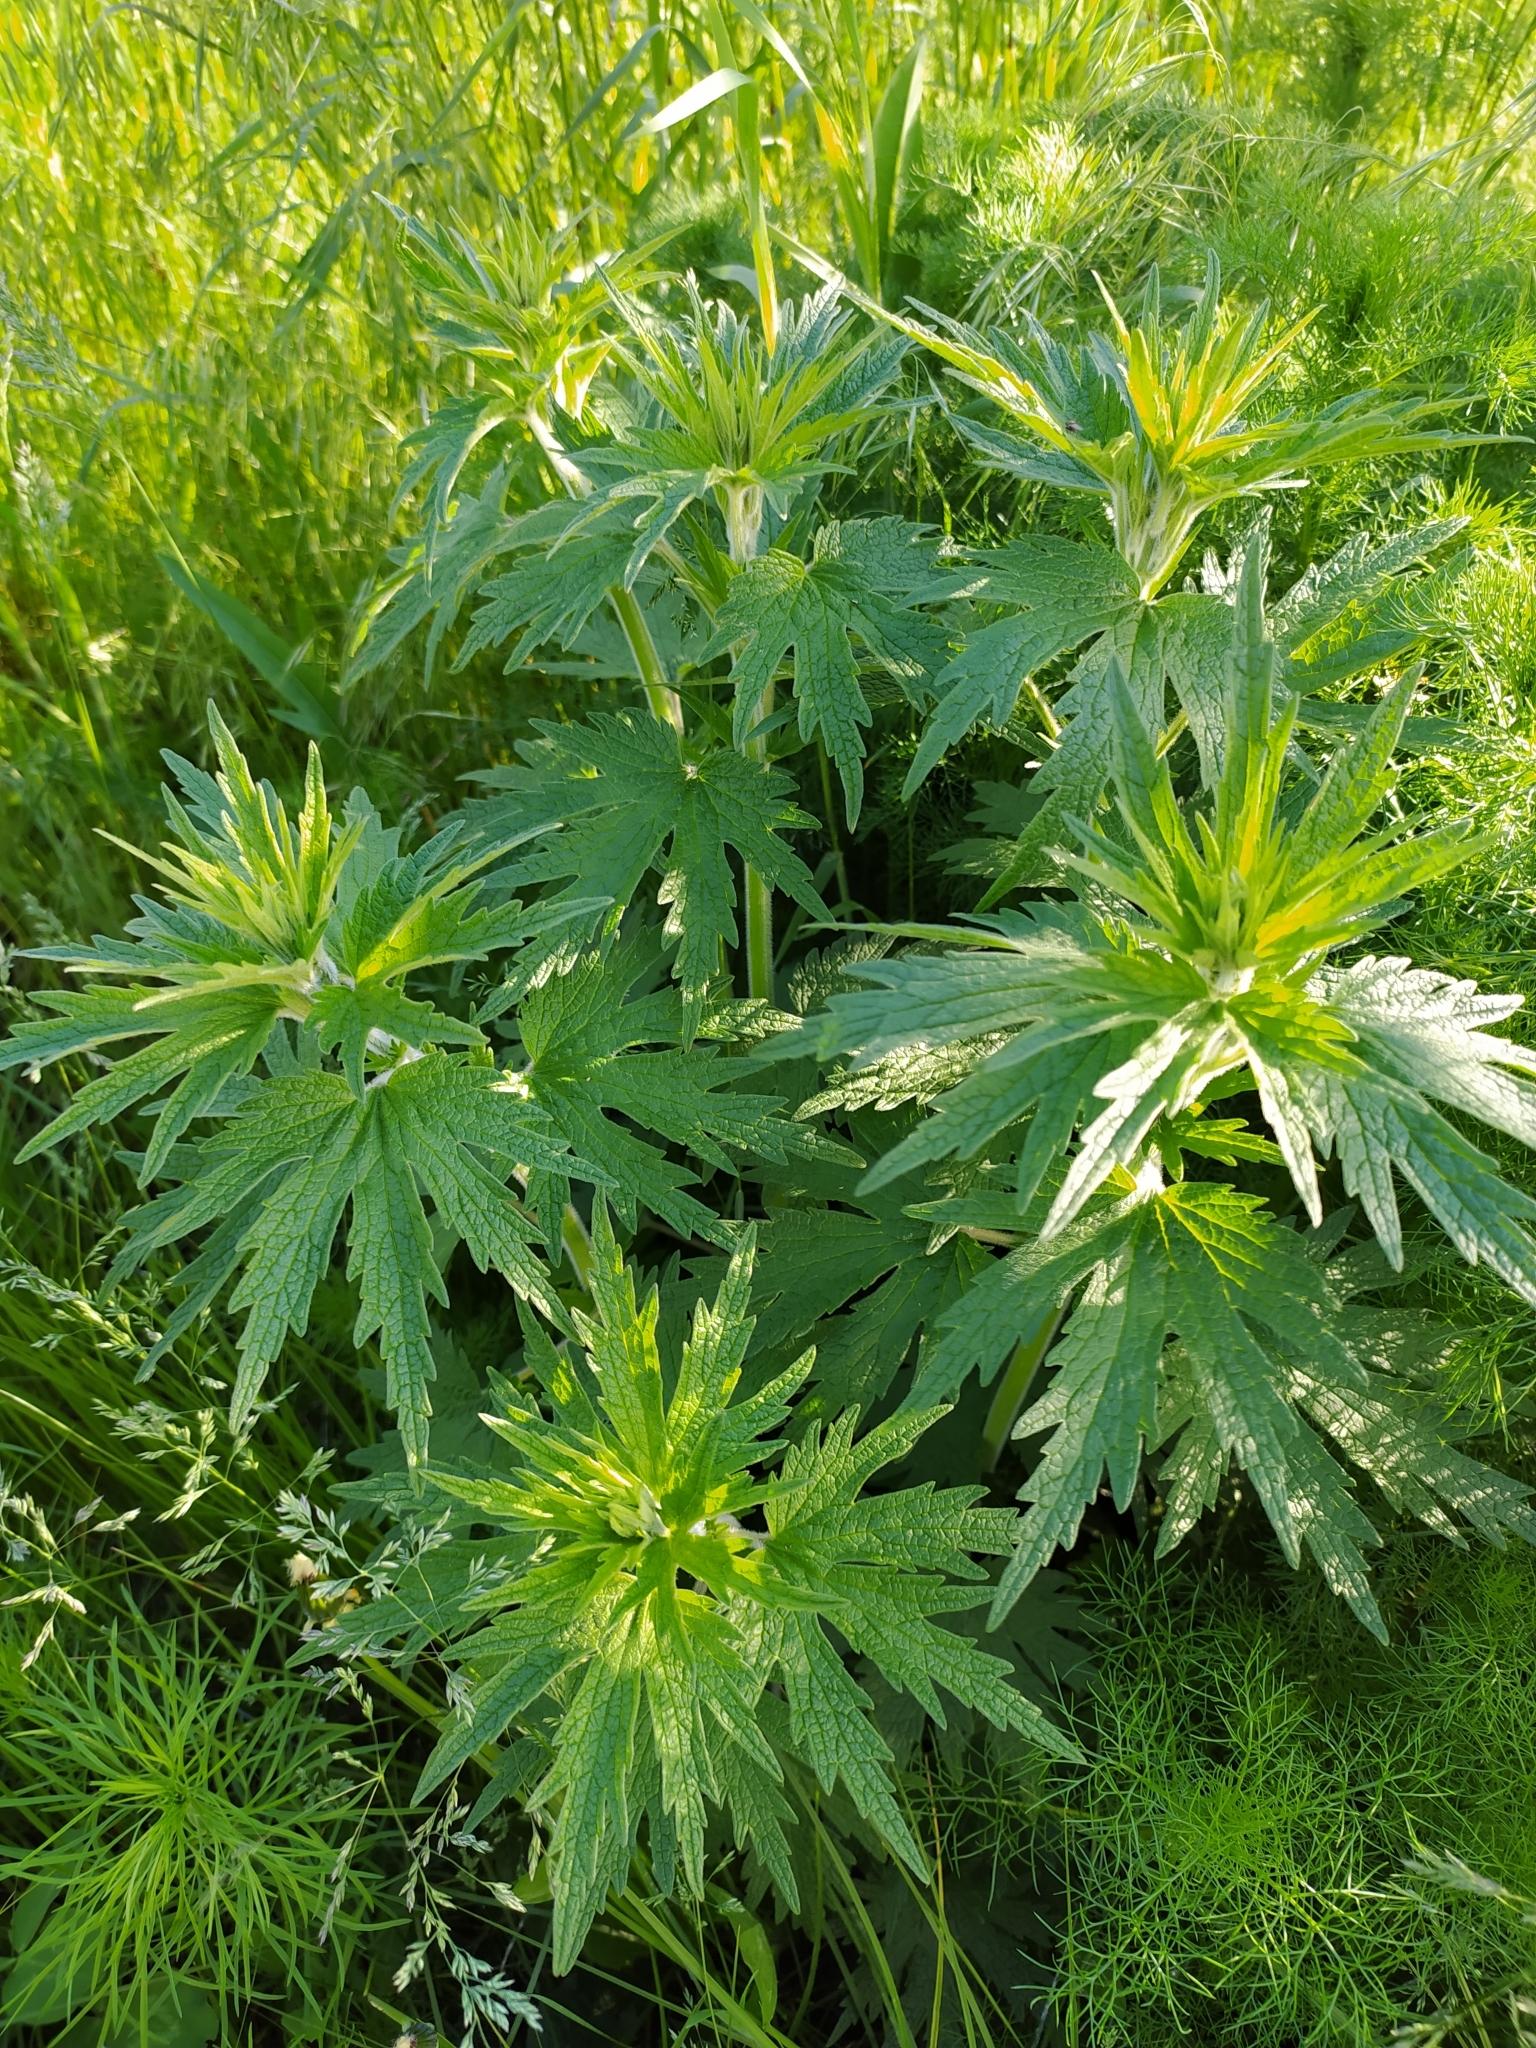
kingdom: Plantae
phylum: Tracheophyta
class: Magnoliopsida
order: Lamiales
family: Lamiaceae
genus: Leonurus
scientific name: Leonurus quinquelobatus
